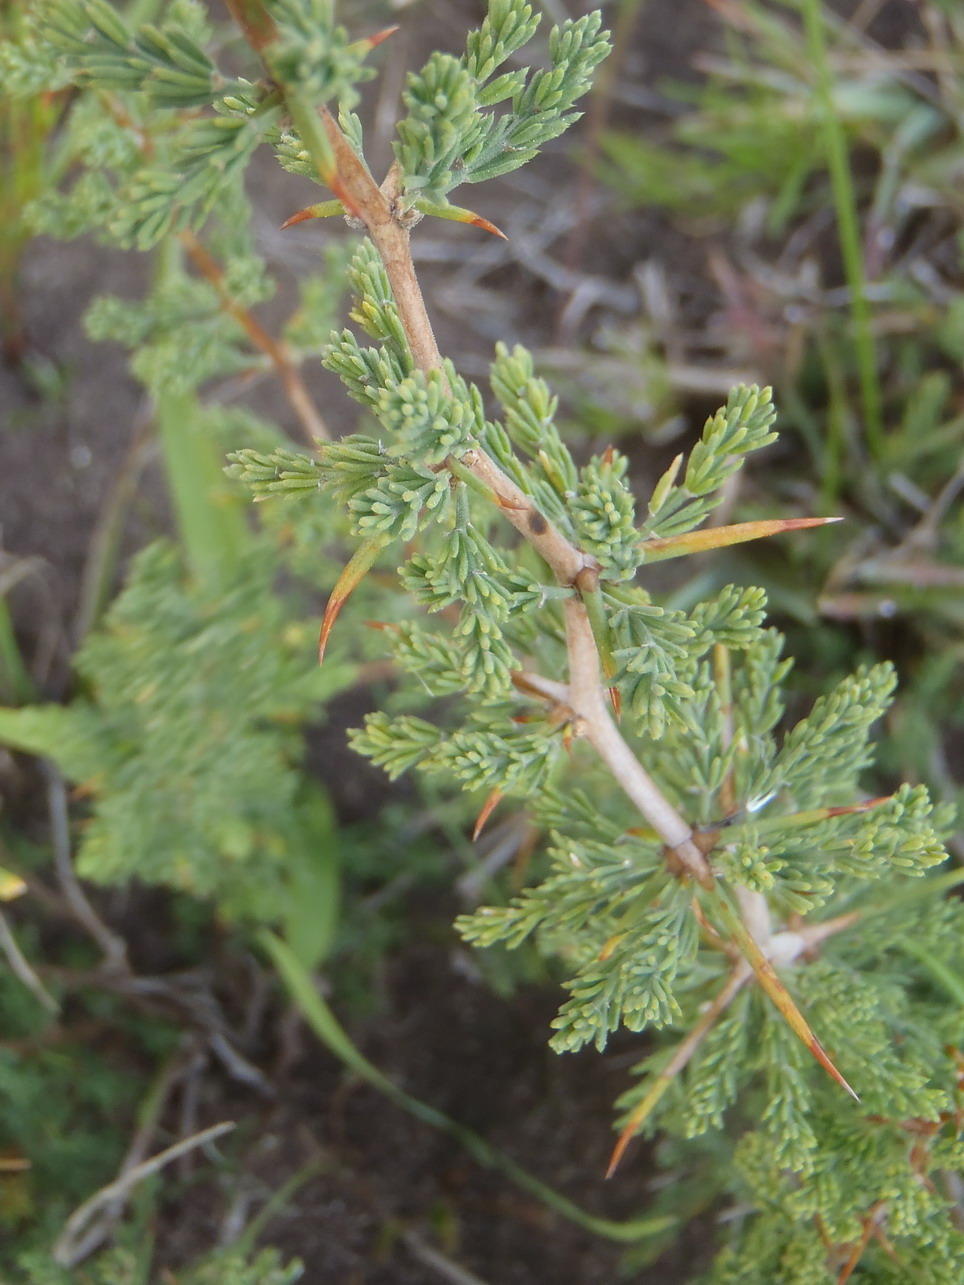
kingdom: Plantae
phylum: Tracheophyta
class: Liliopsida
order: Asparagales
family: Asparagaceae
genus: Asparagus
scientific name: Asparagus capensis
